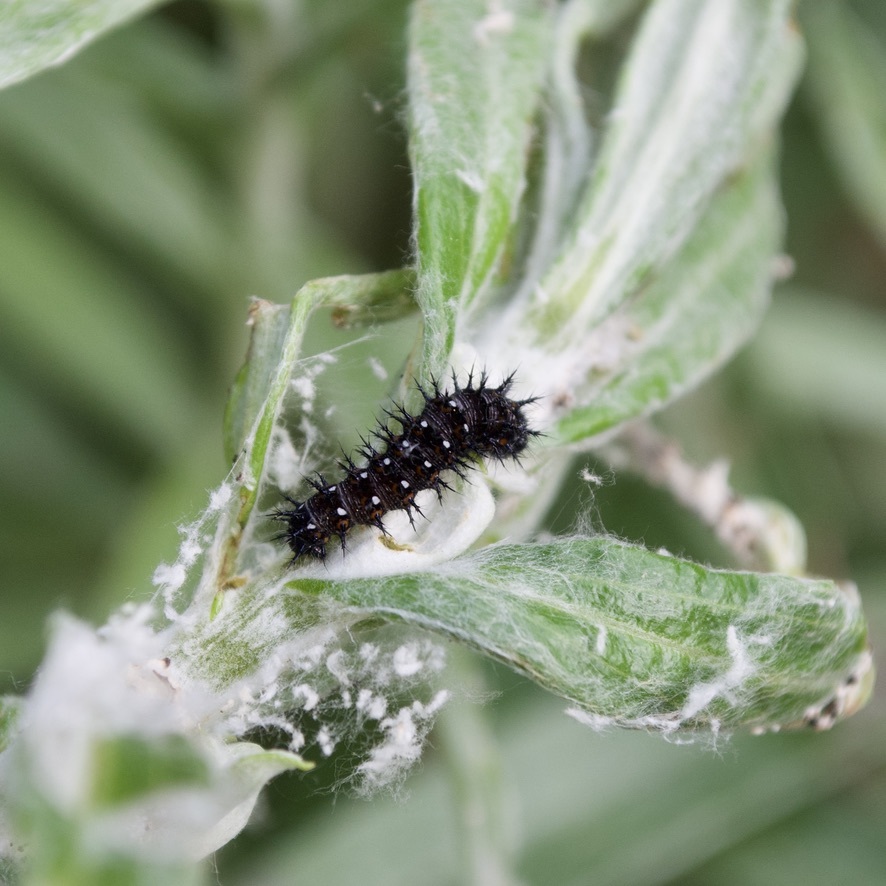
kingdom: Animalia
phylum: Arthropoda
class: Insecta
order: Lepidoptera
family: Nymphalidae
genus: Vanessa
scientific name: Vanessa virginiensis
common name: American lady
